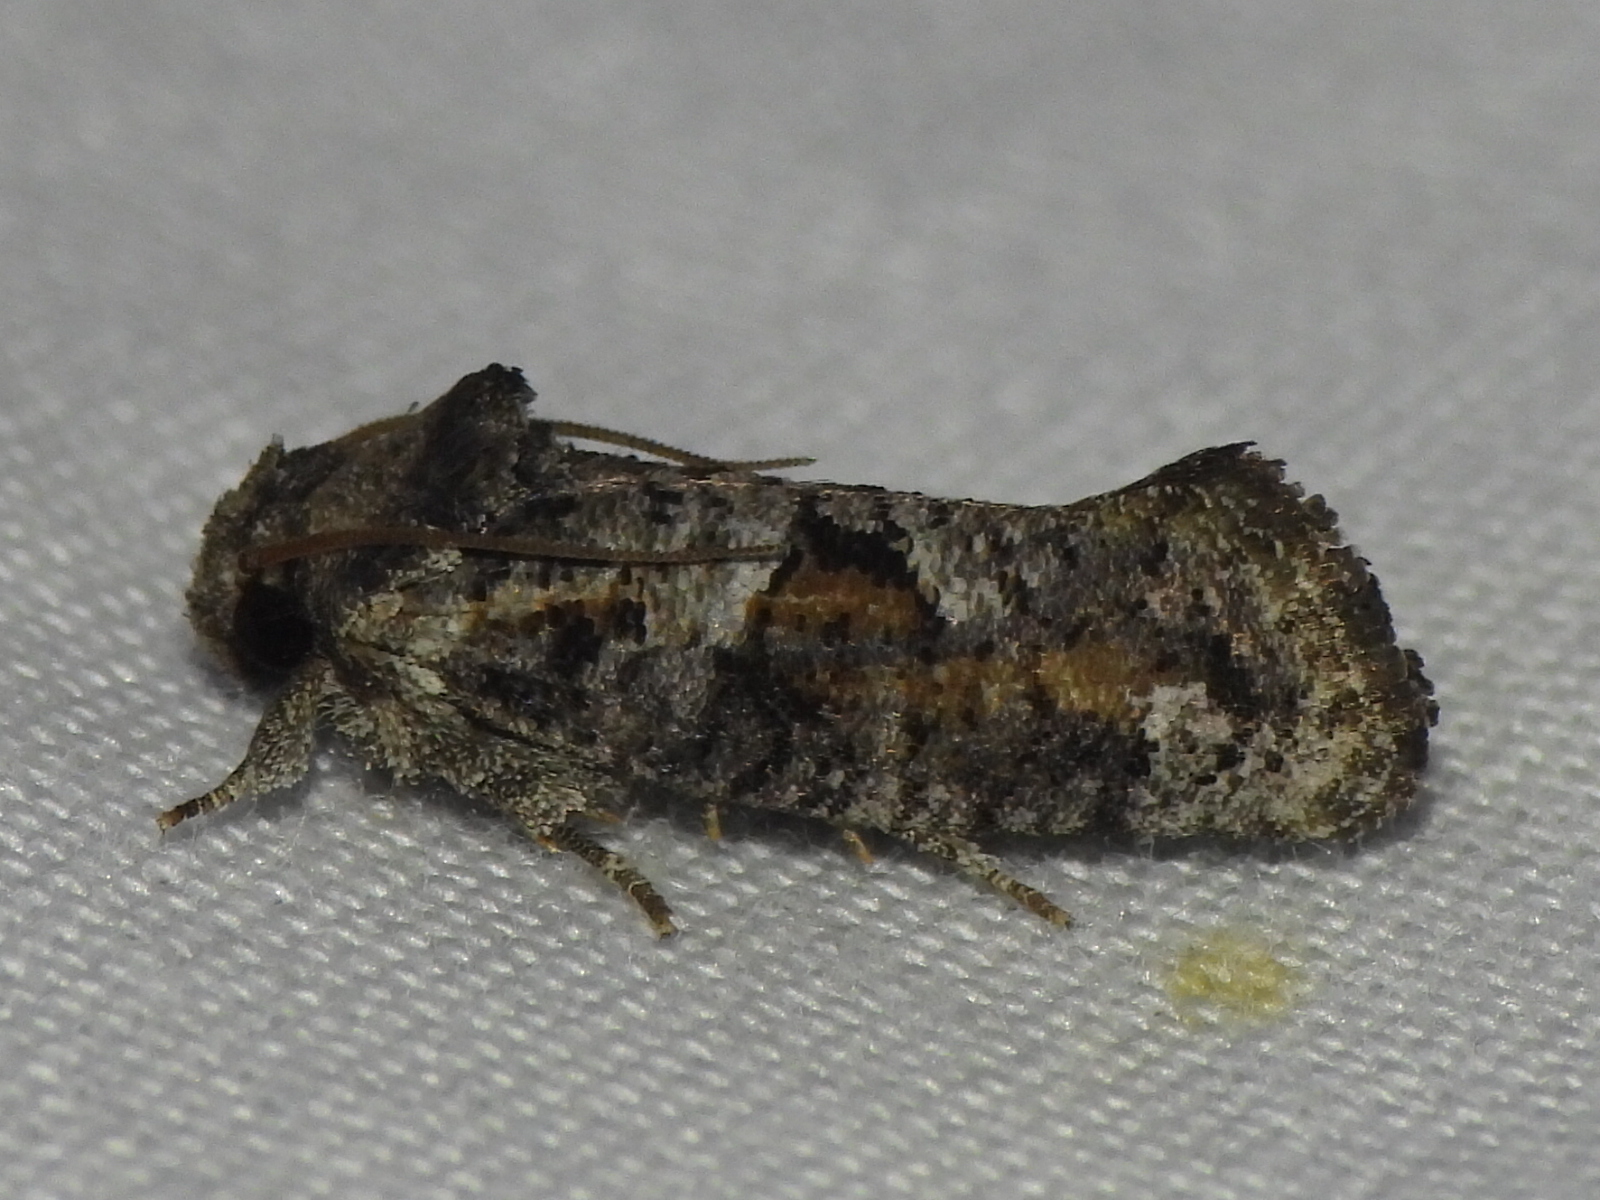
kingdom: Animalia
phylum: Arthropoda
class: Insecta
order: Lepidoptera
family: Tineidae
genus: Acrolophus
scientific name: Acrolophus piger
